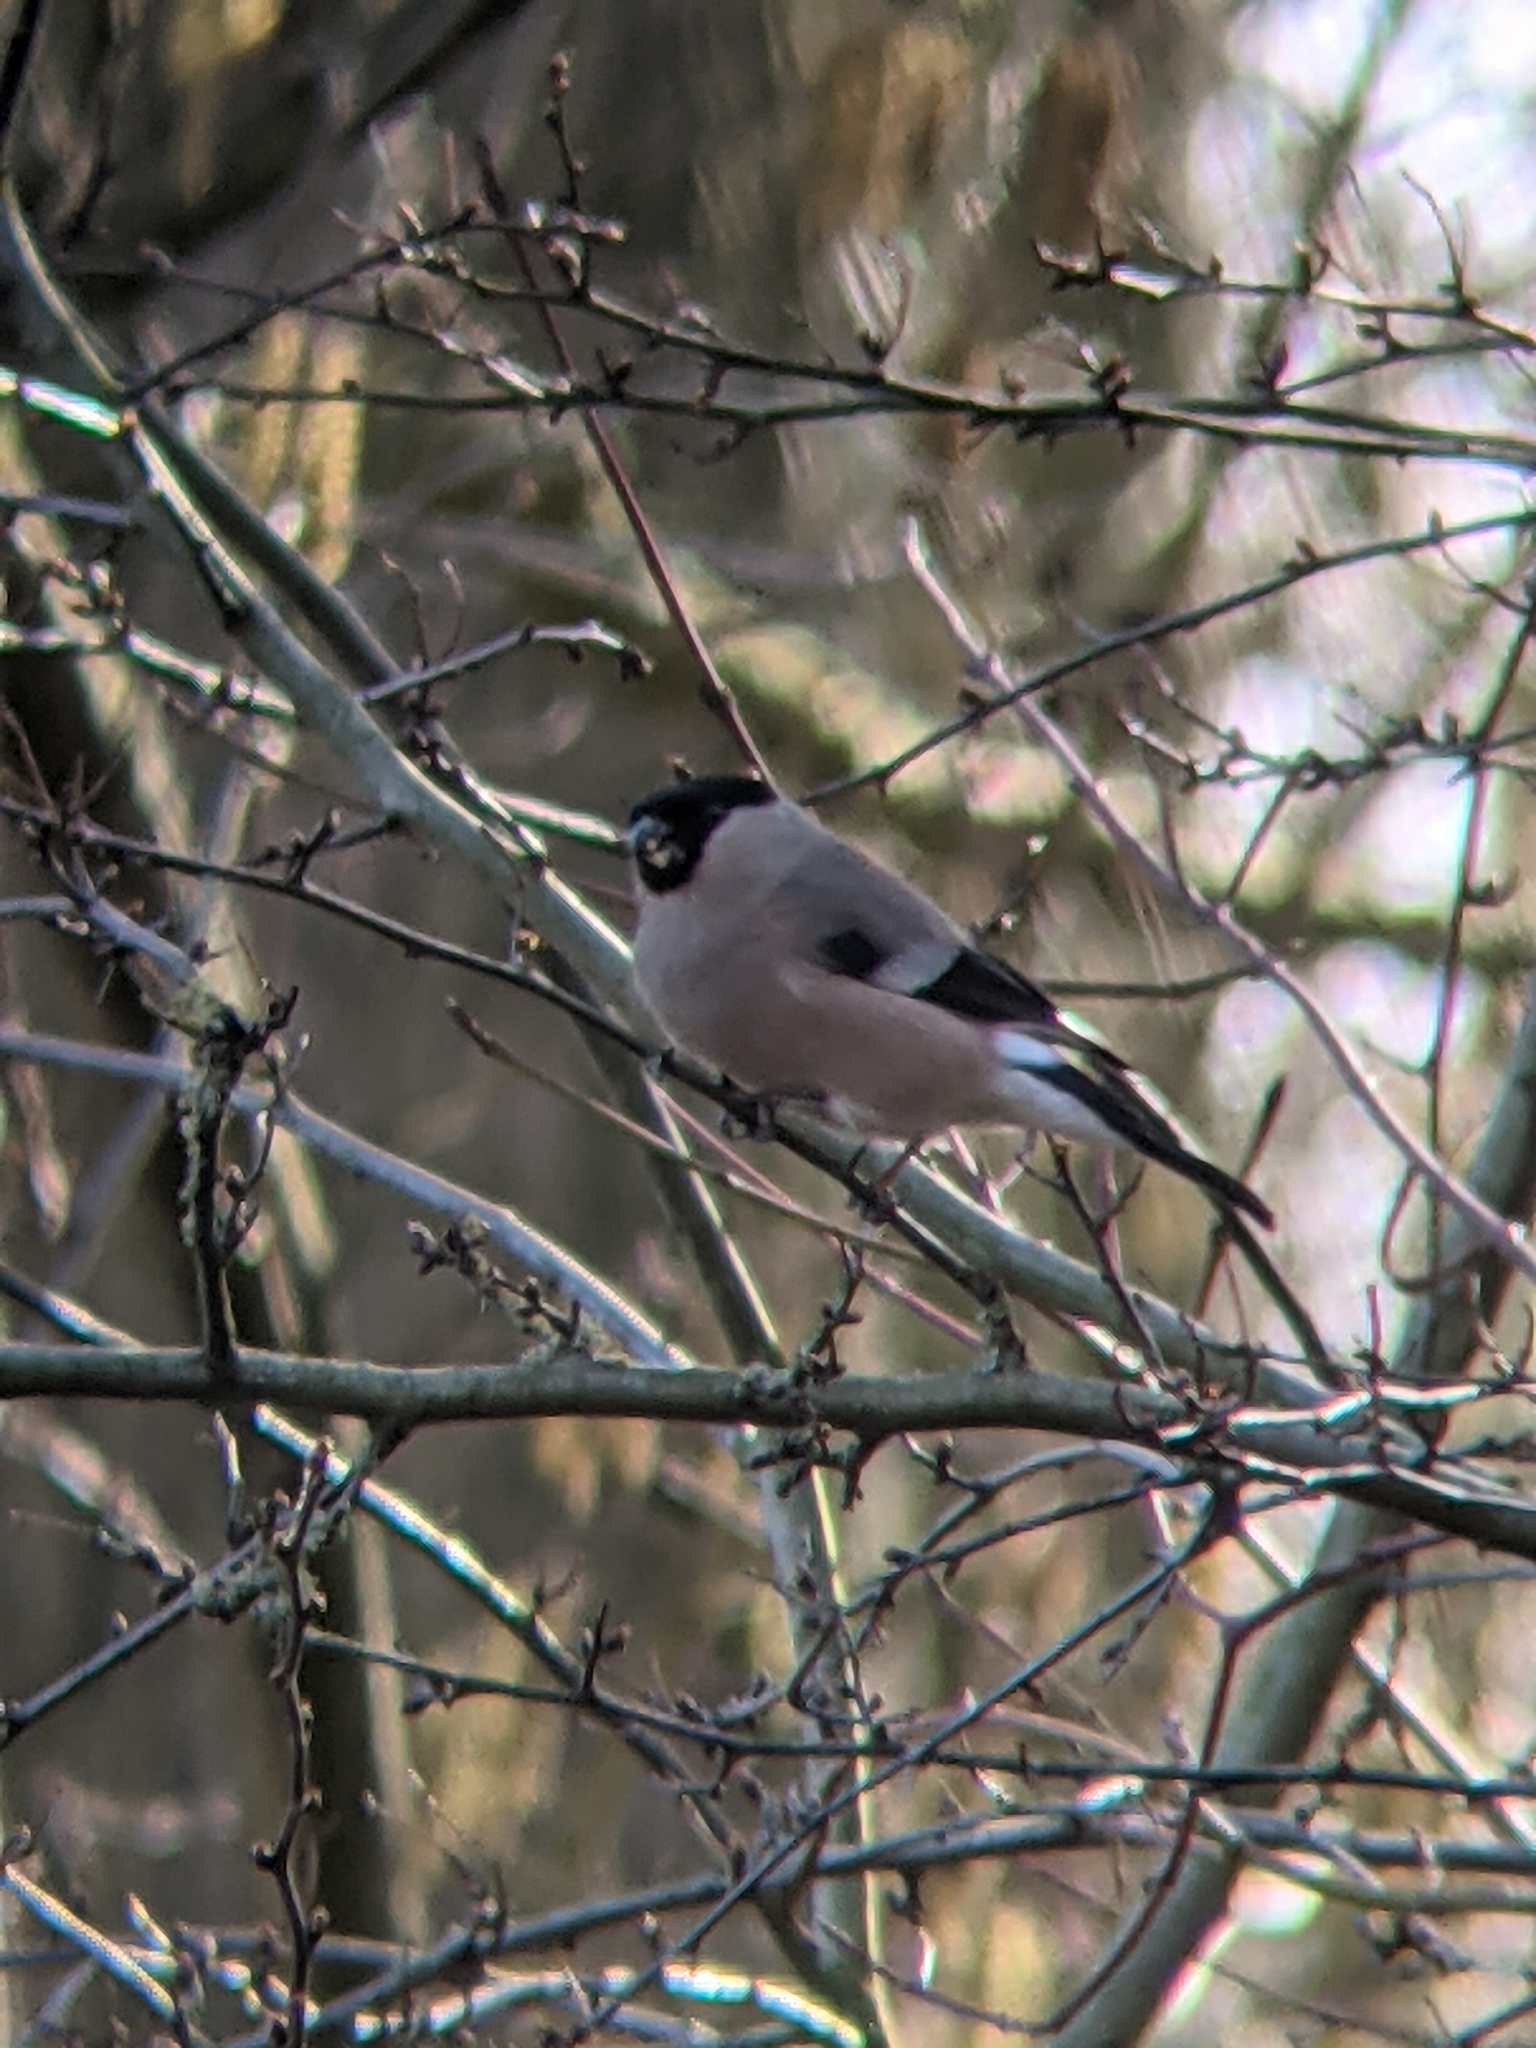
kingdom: Animalia
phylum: Chordata
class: Aves
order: Passeriformes
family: Fringillidae
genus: Pyrrhula
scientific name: Pyrrhula pyrrhula
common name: Eurasian bullfinch
